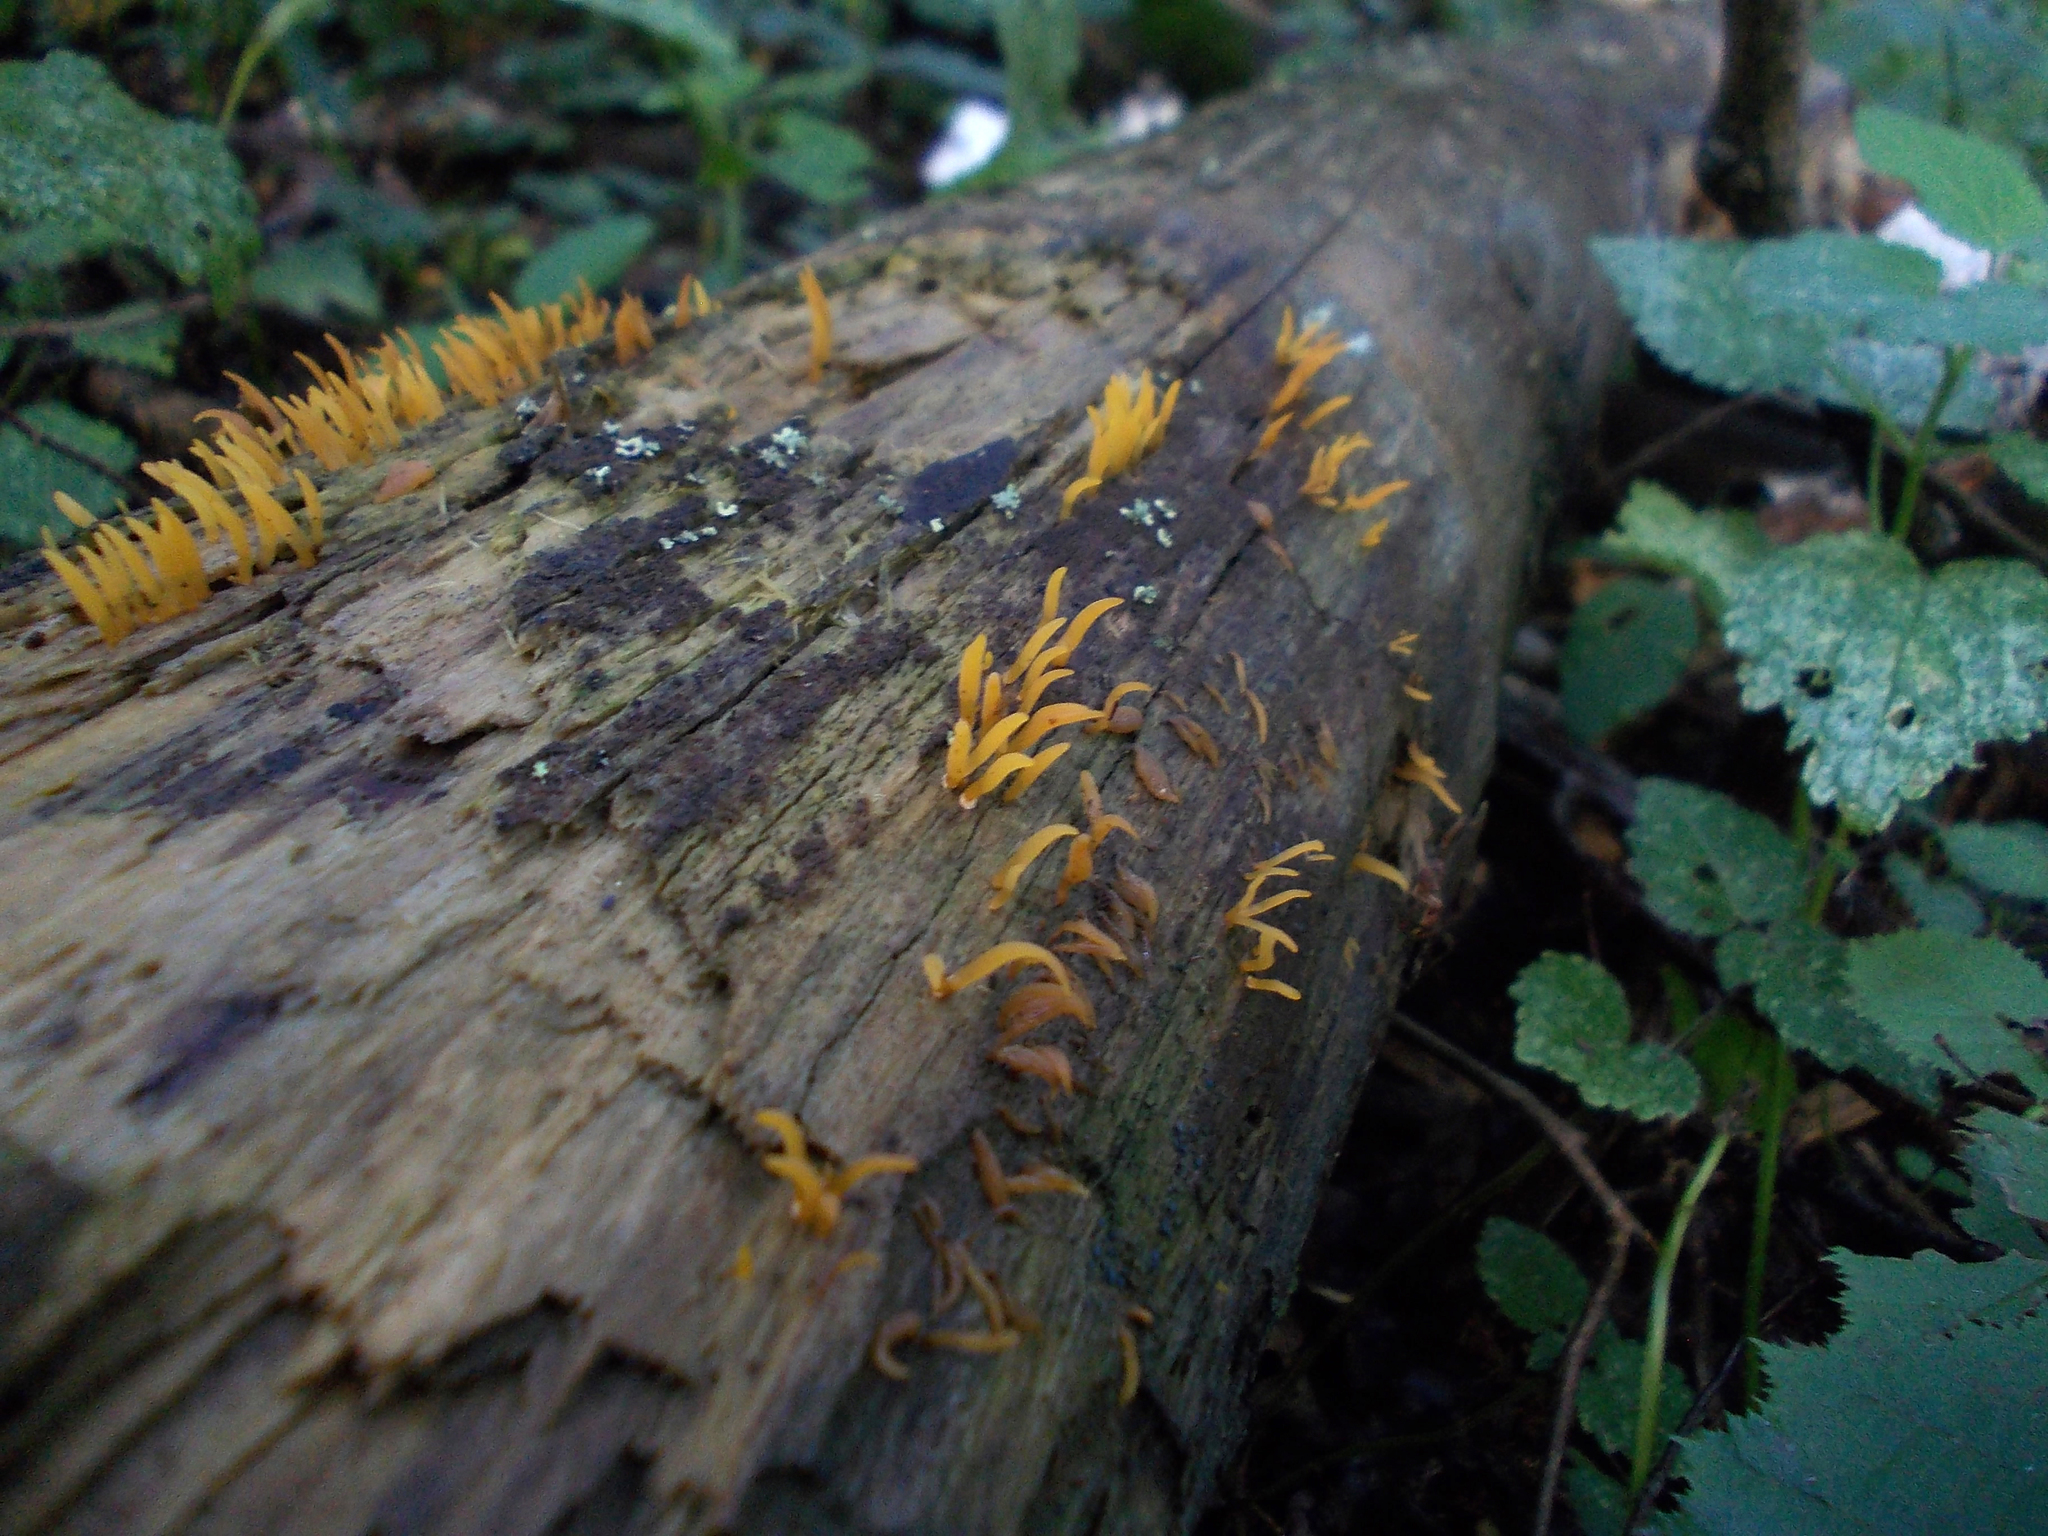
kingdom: Fungi
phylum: Basidiomycota
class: Dacrymycetes
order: Dacrymycetales
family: Dacrymycetaceae
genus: Calocera
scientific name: Calocera cornea
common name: Small stagshorn
